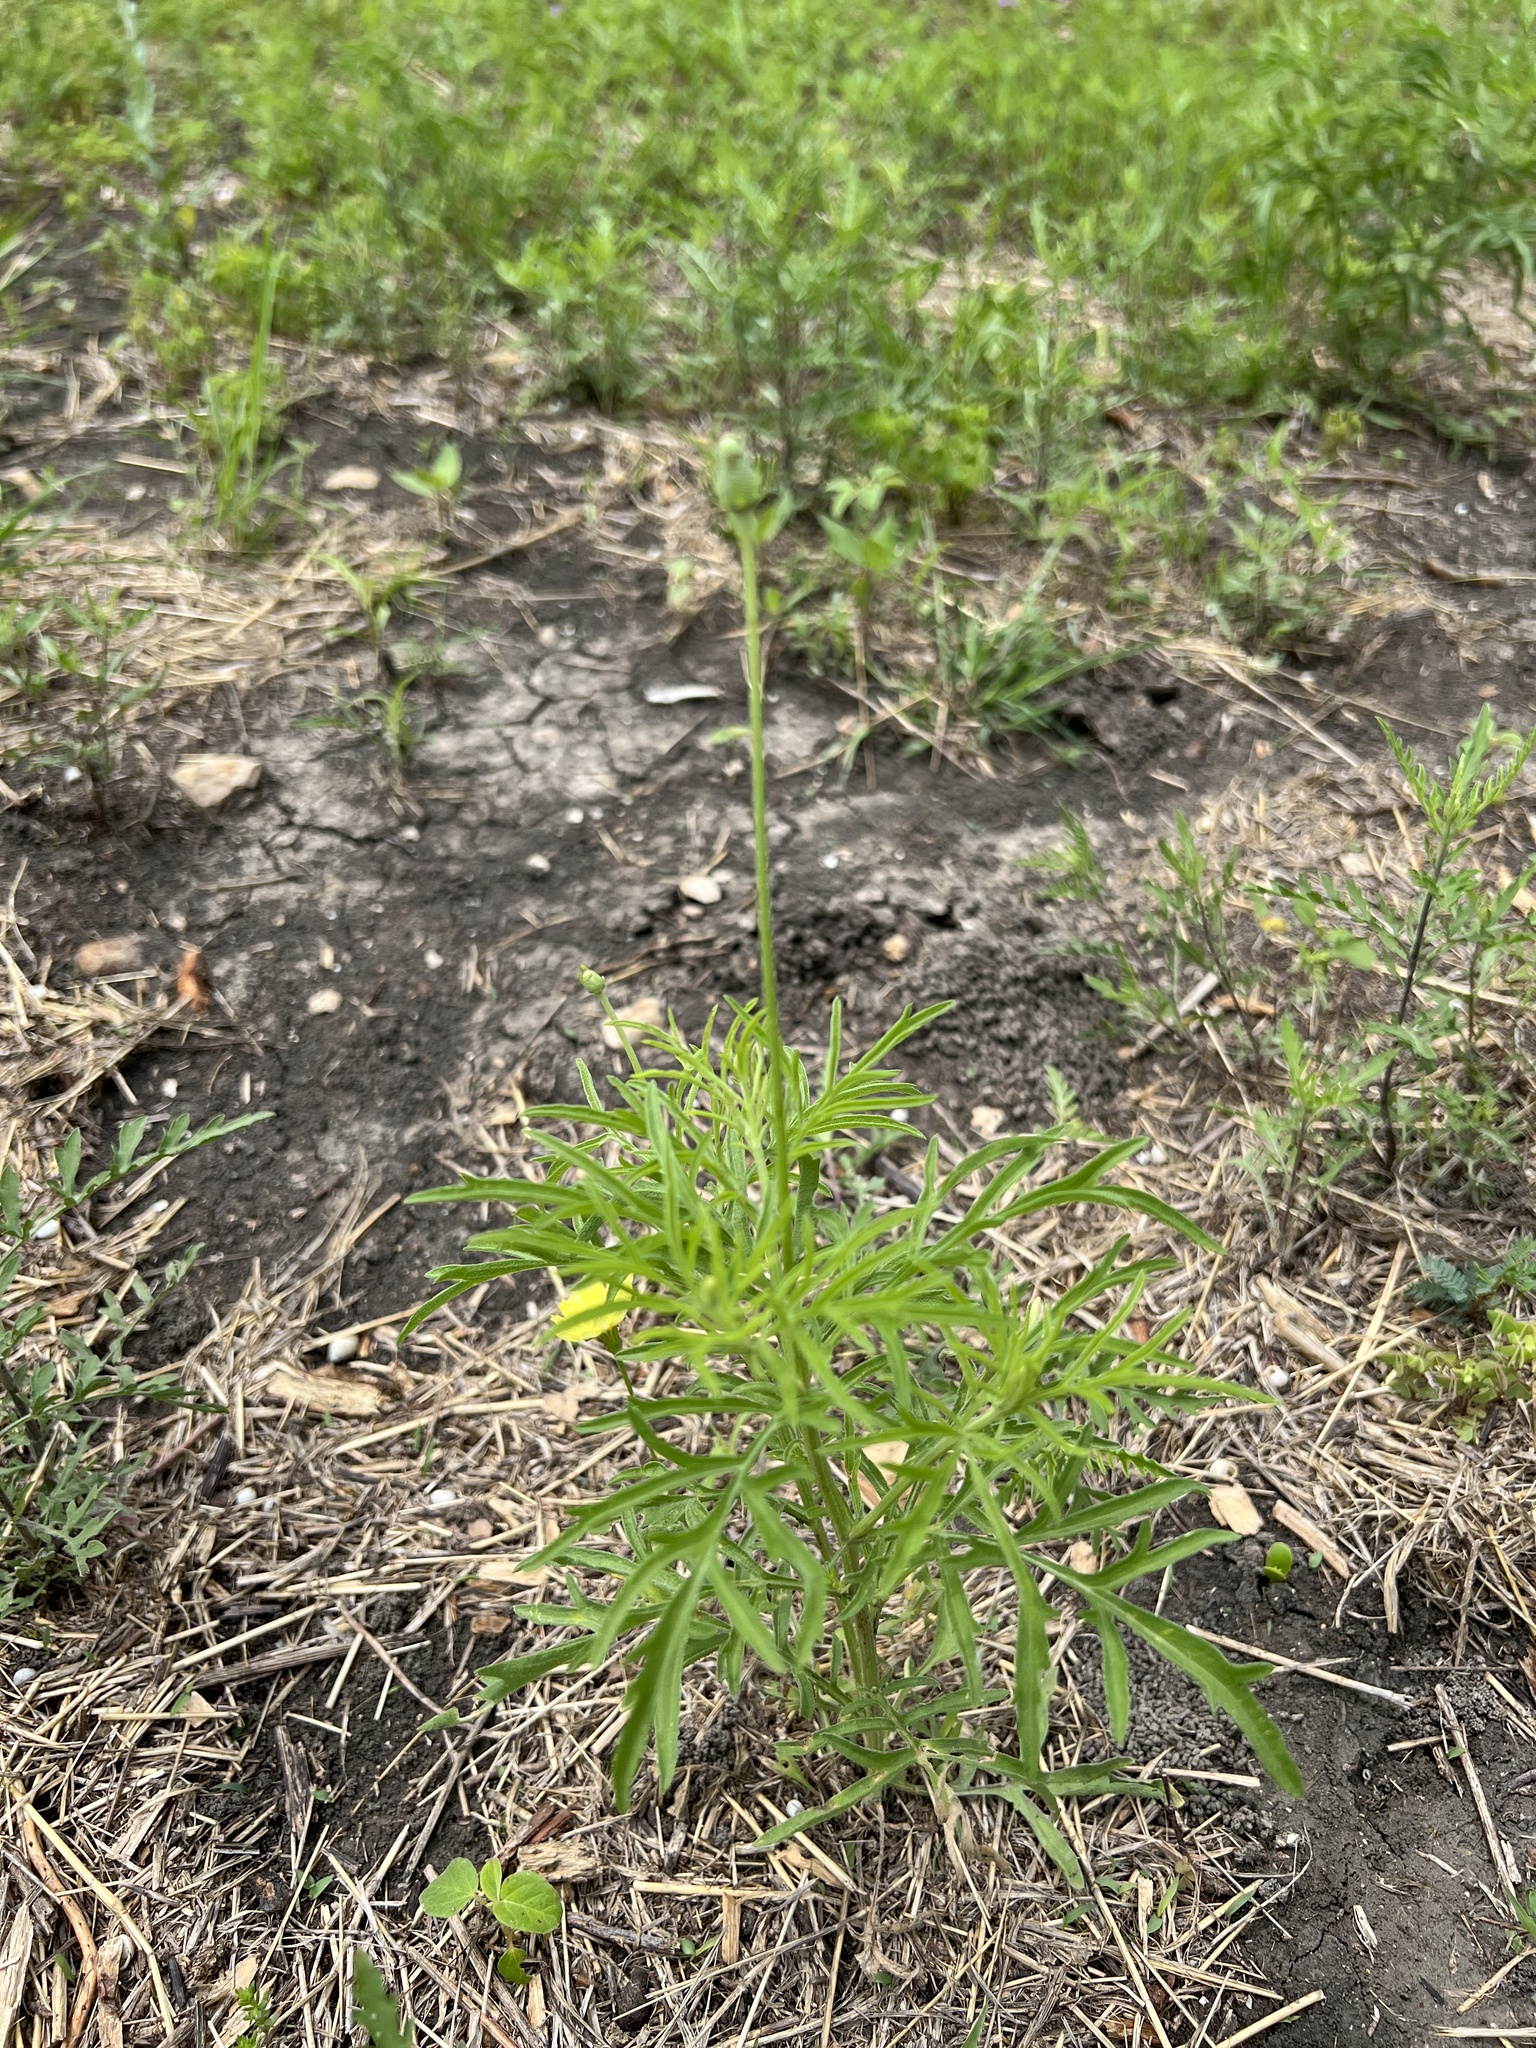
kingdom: Plantae
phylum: Tracheophyta
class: Magnoliopsida
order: Asterales
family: Asteraceae
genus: Ratibida
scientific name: Ratibida columnifera
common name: Prairie coneflower
